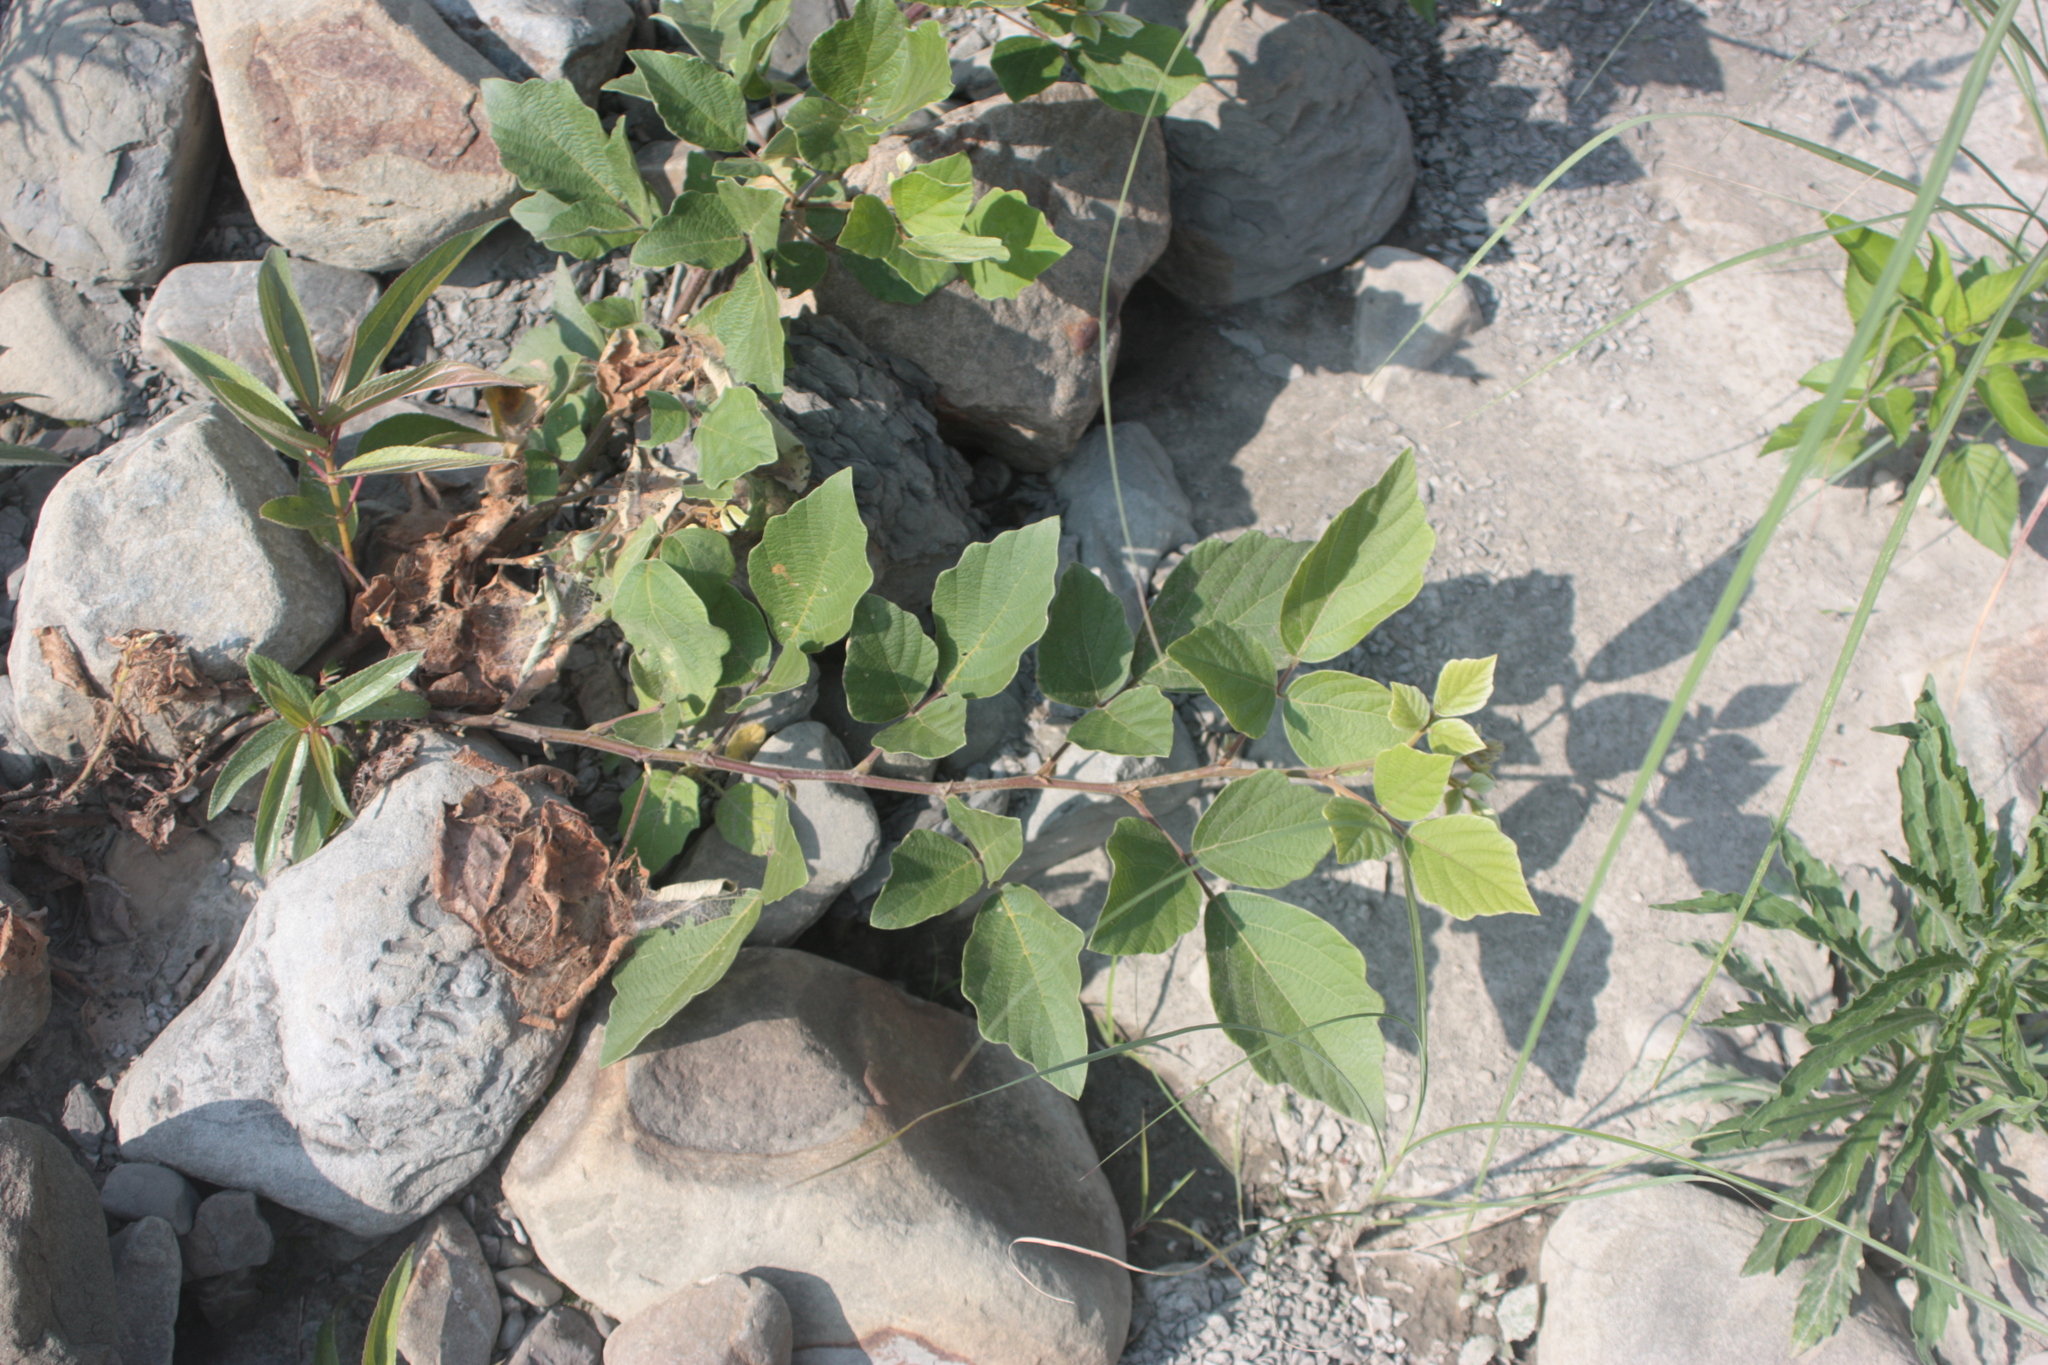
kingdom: Plantae
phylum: Tracheophyta
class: Magnoliopsida
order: Fabales
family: Fabaceae
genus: Puhuaea
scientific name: Puhuaea sequax
